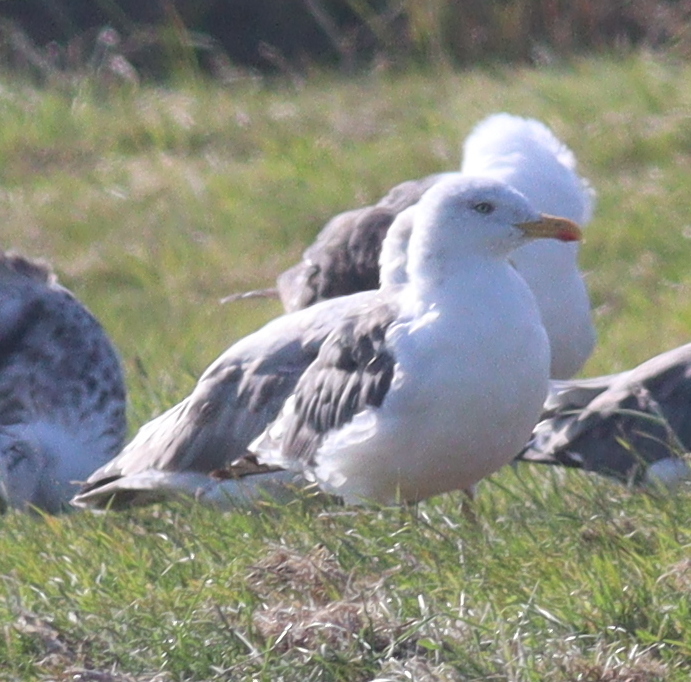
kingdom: Animalia
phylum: Chordata
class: Aves
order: Charadriiformes
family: Laridae
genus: Larus
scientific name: Larus fuscus
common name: Lesser black-backed gull
